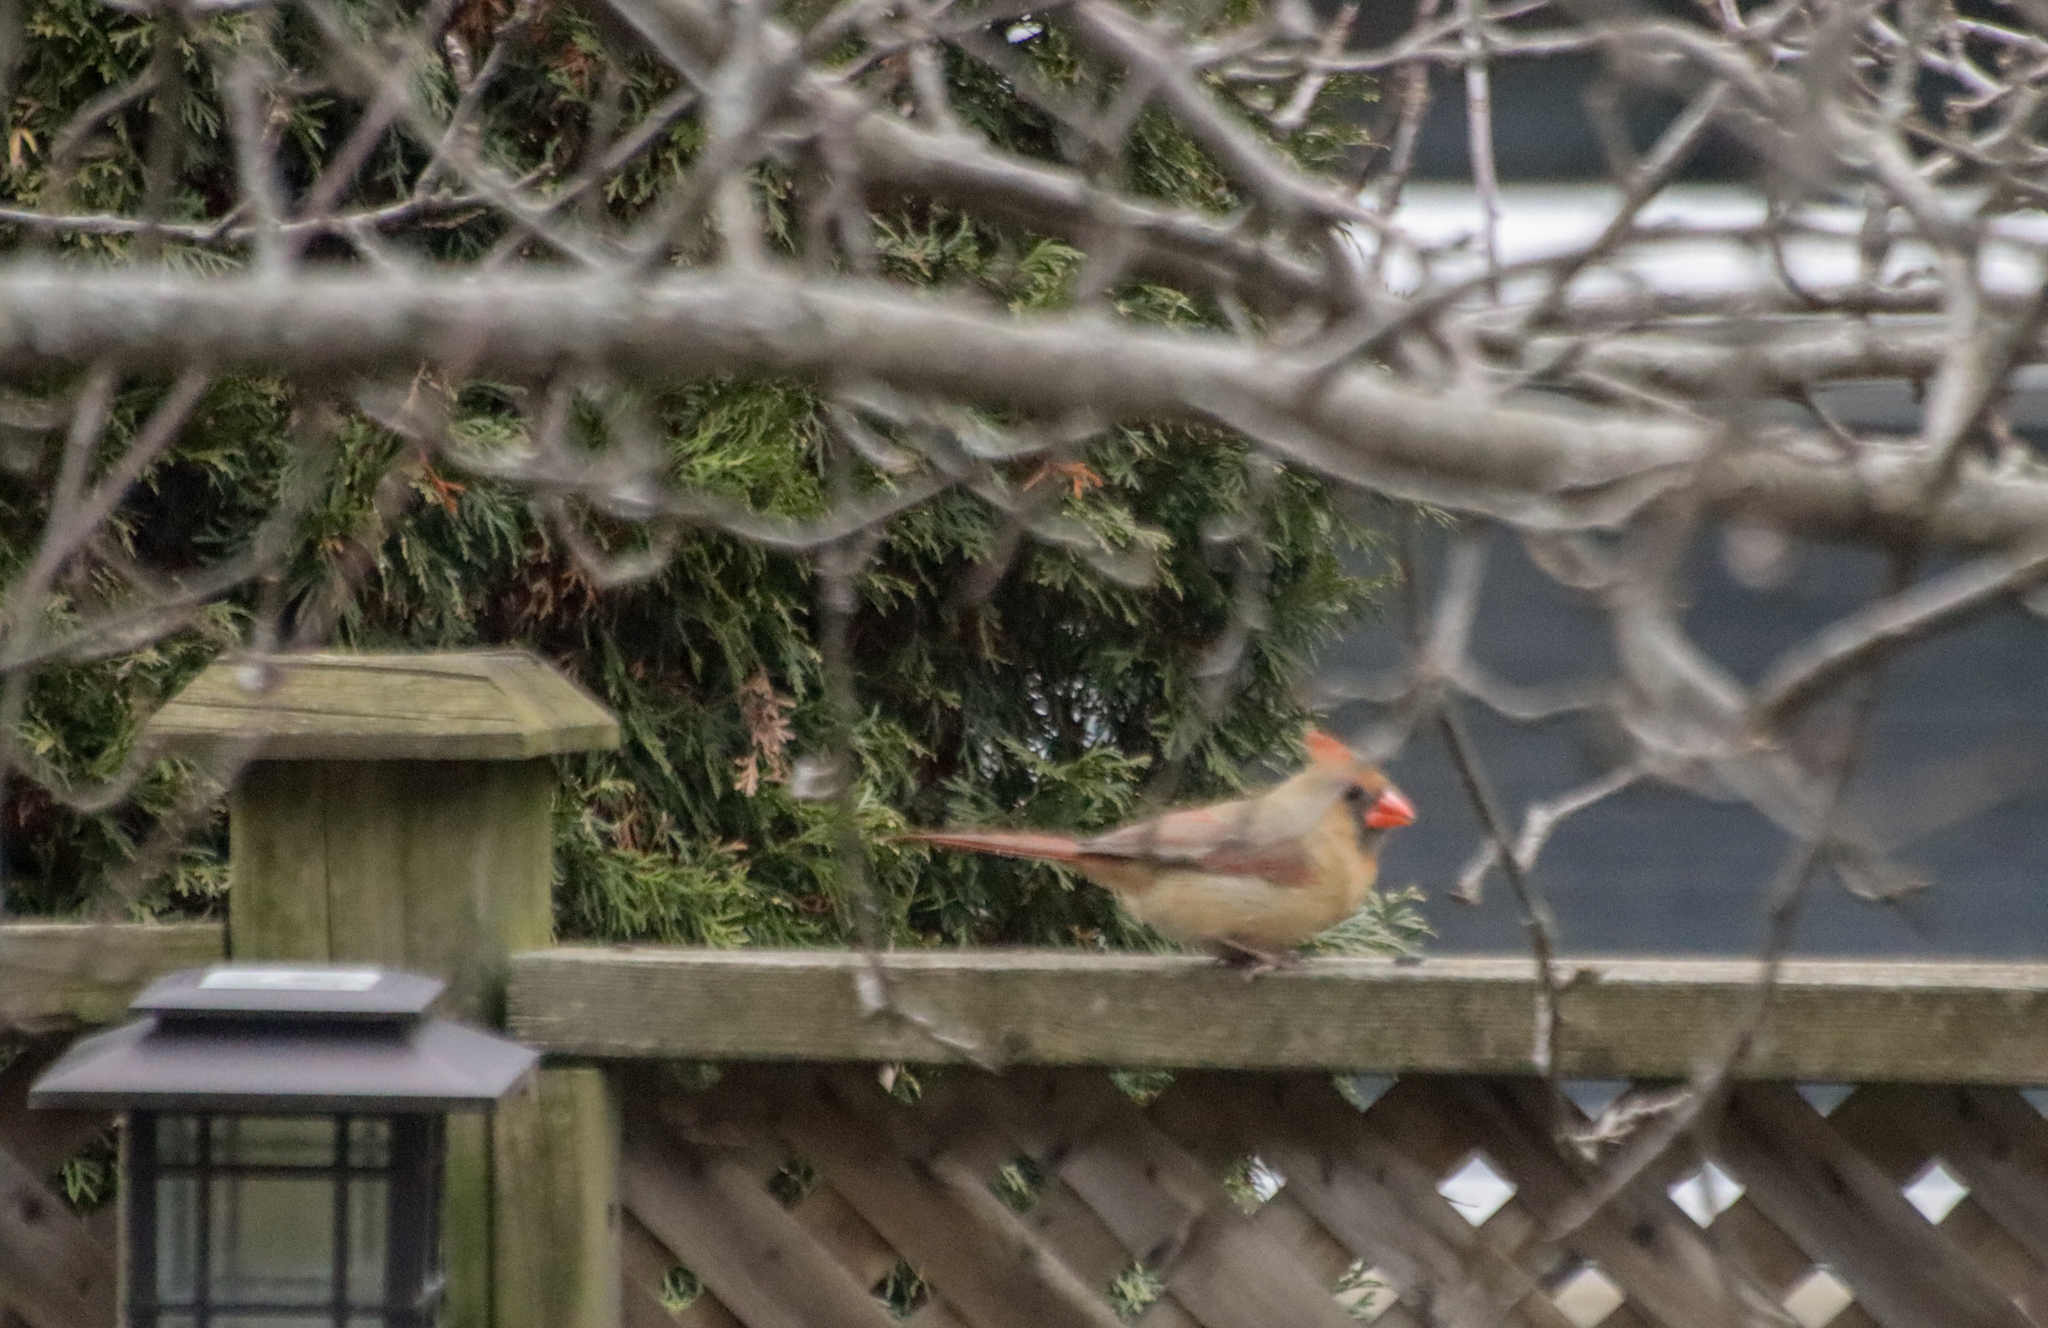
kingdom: Animalia
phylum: Chordata
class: Aves
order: Passeriformes
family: Cardinalidae
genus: Cardinalis
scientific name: Cardinalis cardinalis
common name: Northern cardinal
